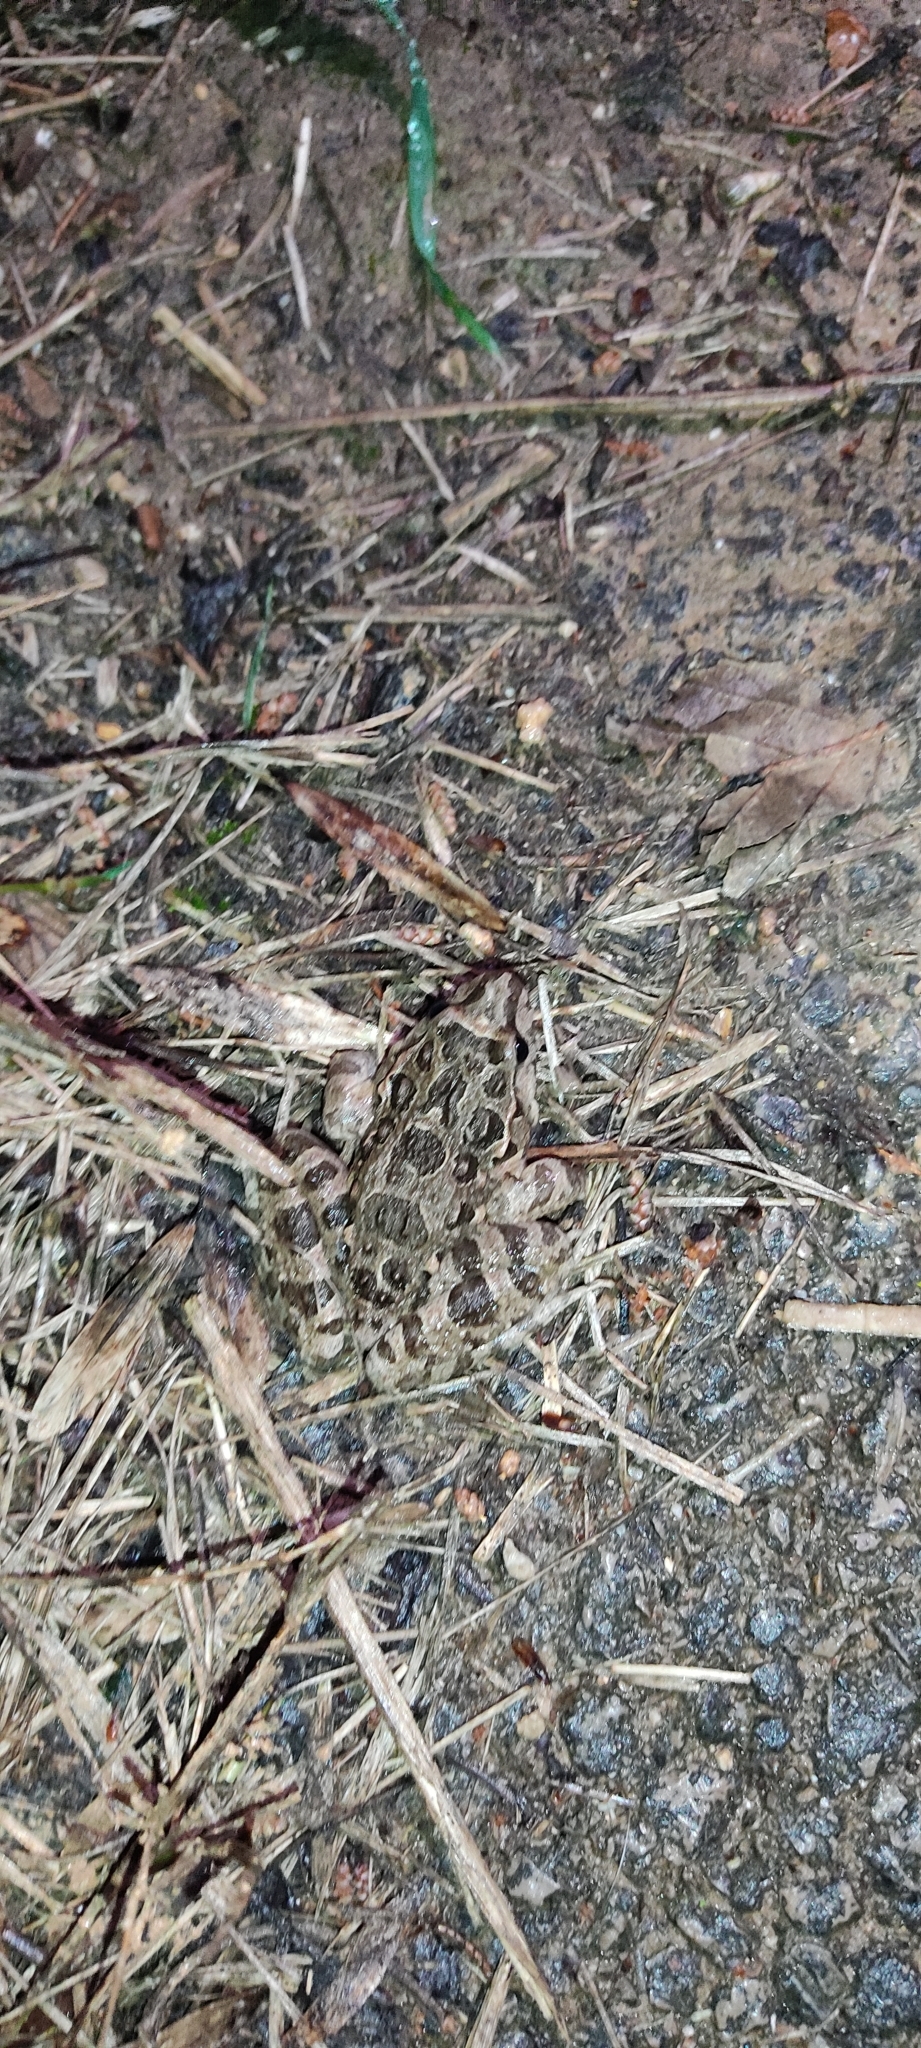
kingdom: Animalia
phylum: Chordata
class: Amphibia
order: Anura
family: Alytidae
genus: Discoglossus
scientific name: Discoglossus pictus
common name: Painted frog
